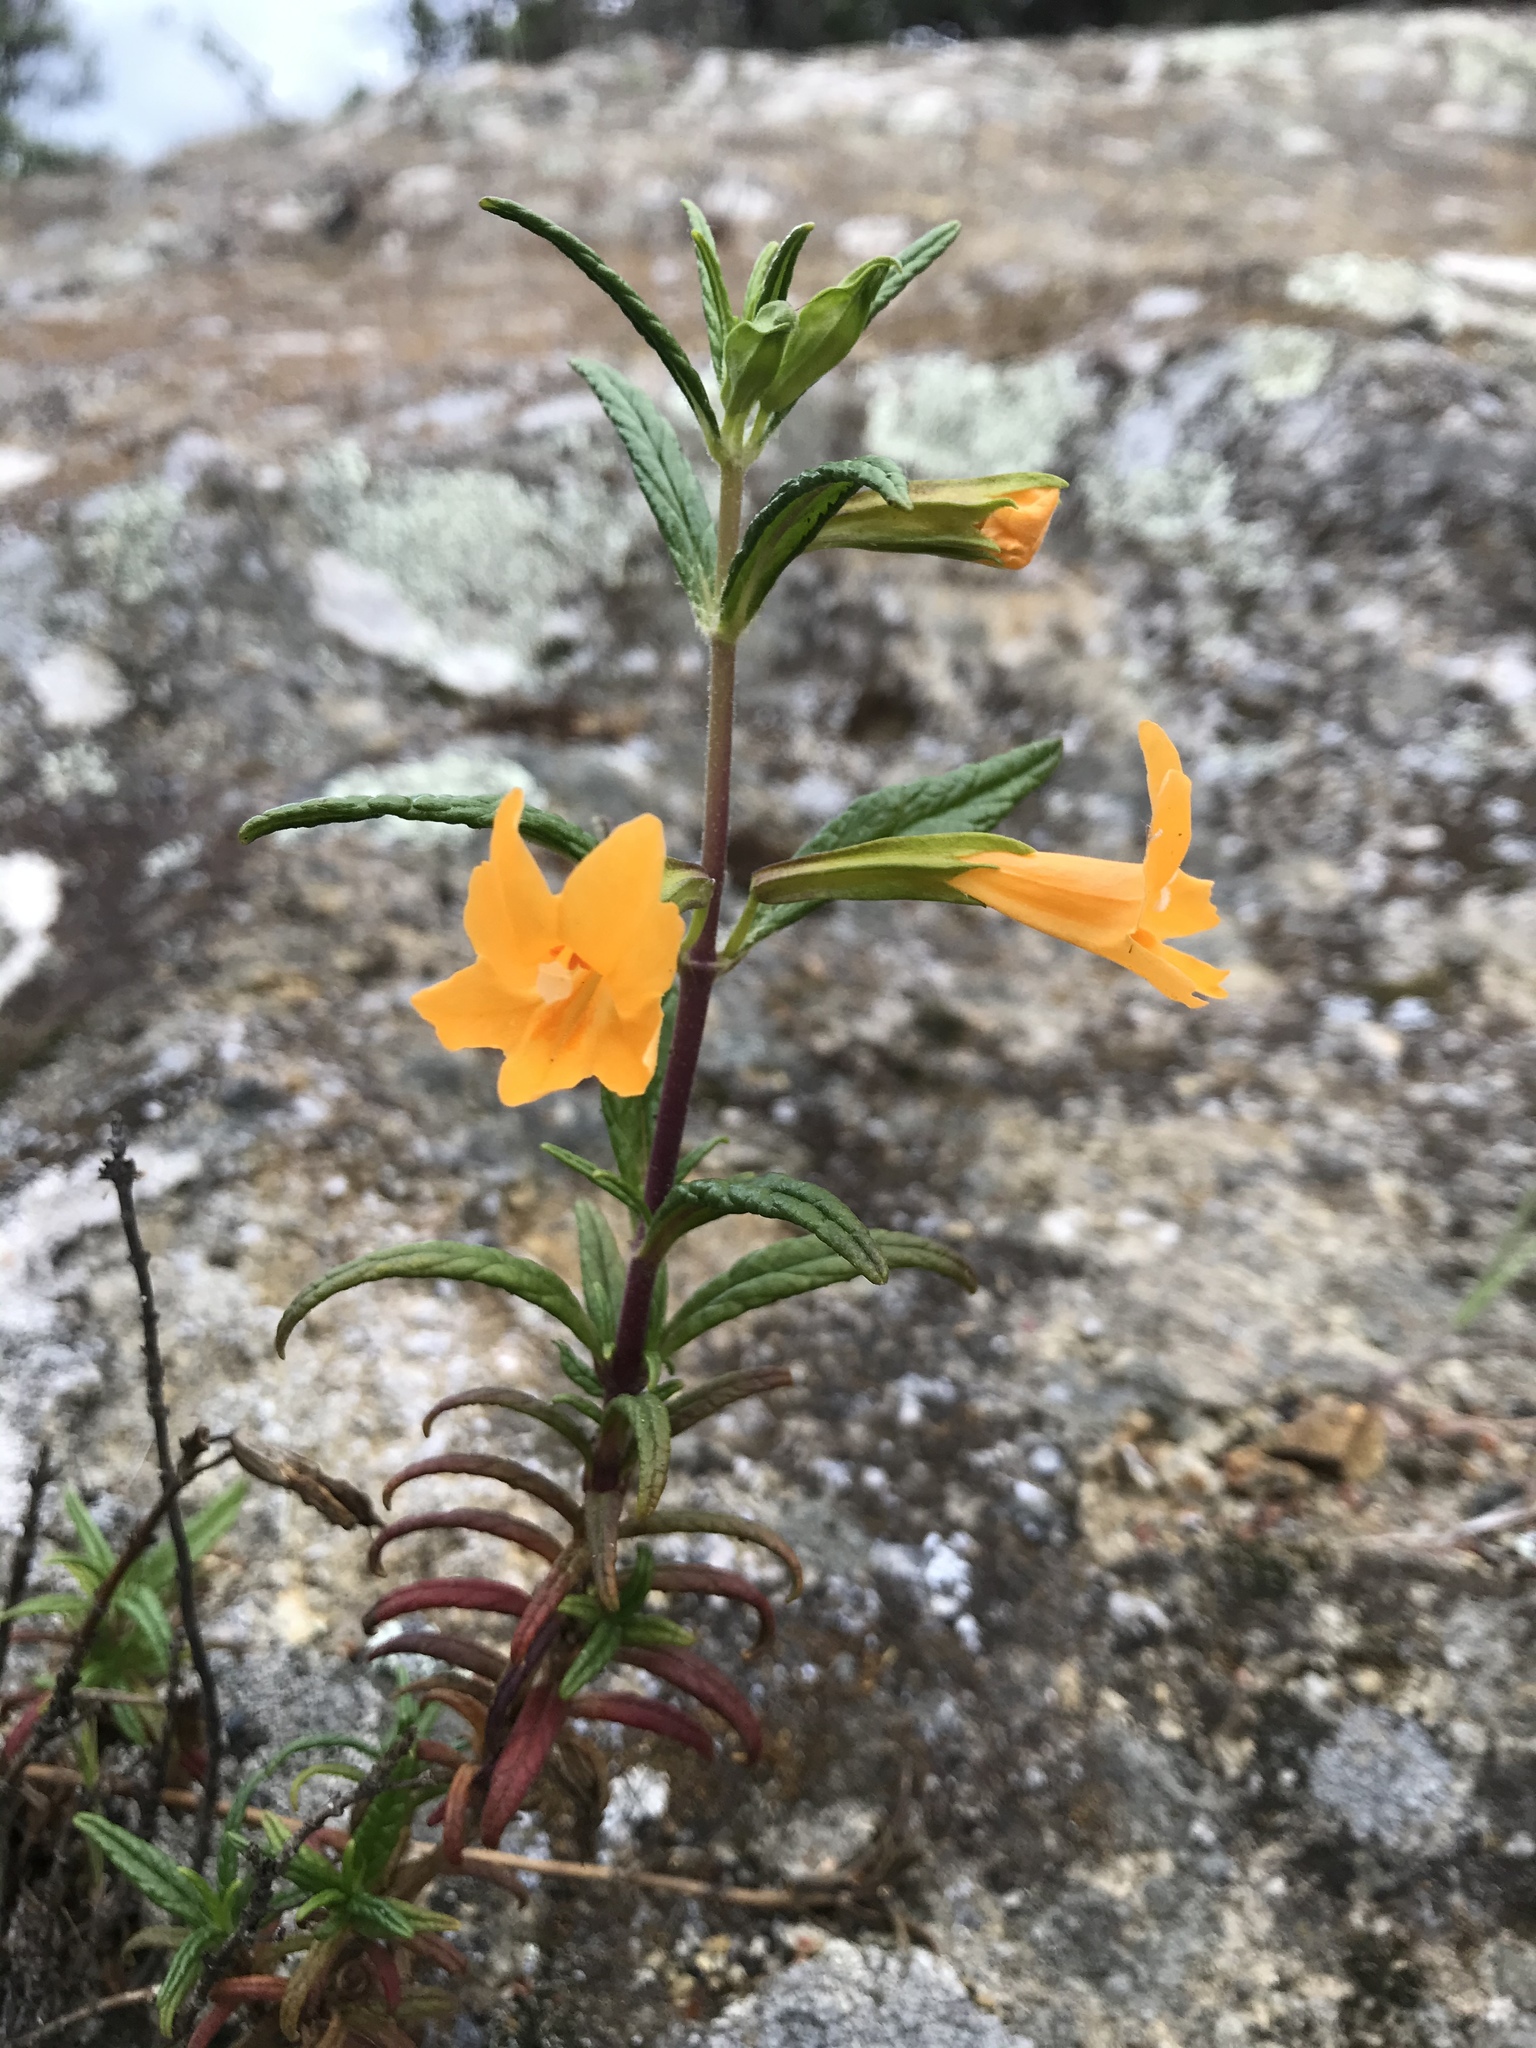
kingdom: Plantae
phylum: Tracheophyta
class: Magnoliopsida
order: Lamiales
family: Phrymaceae
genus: Diplacus
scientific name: Diplacus aurantiacus
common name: Bush monkey-flower
